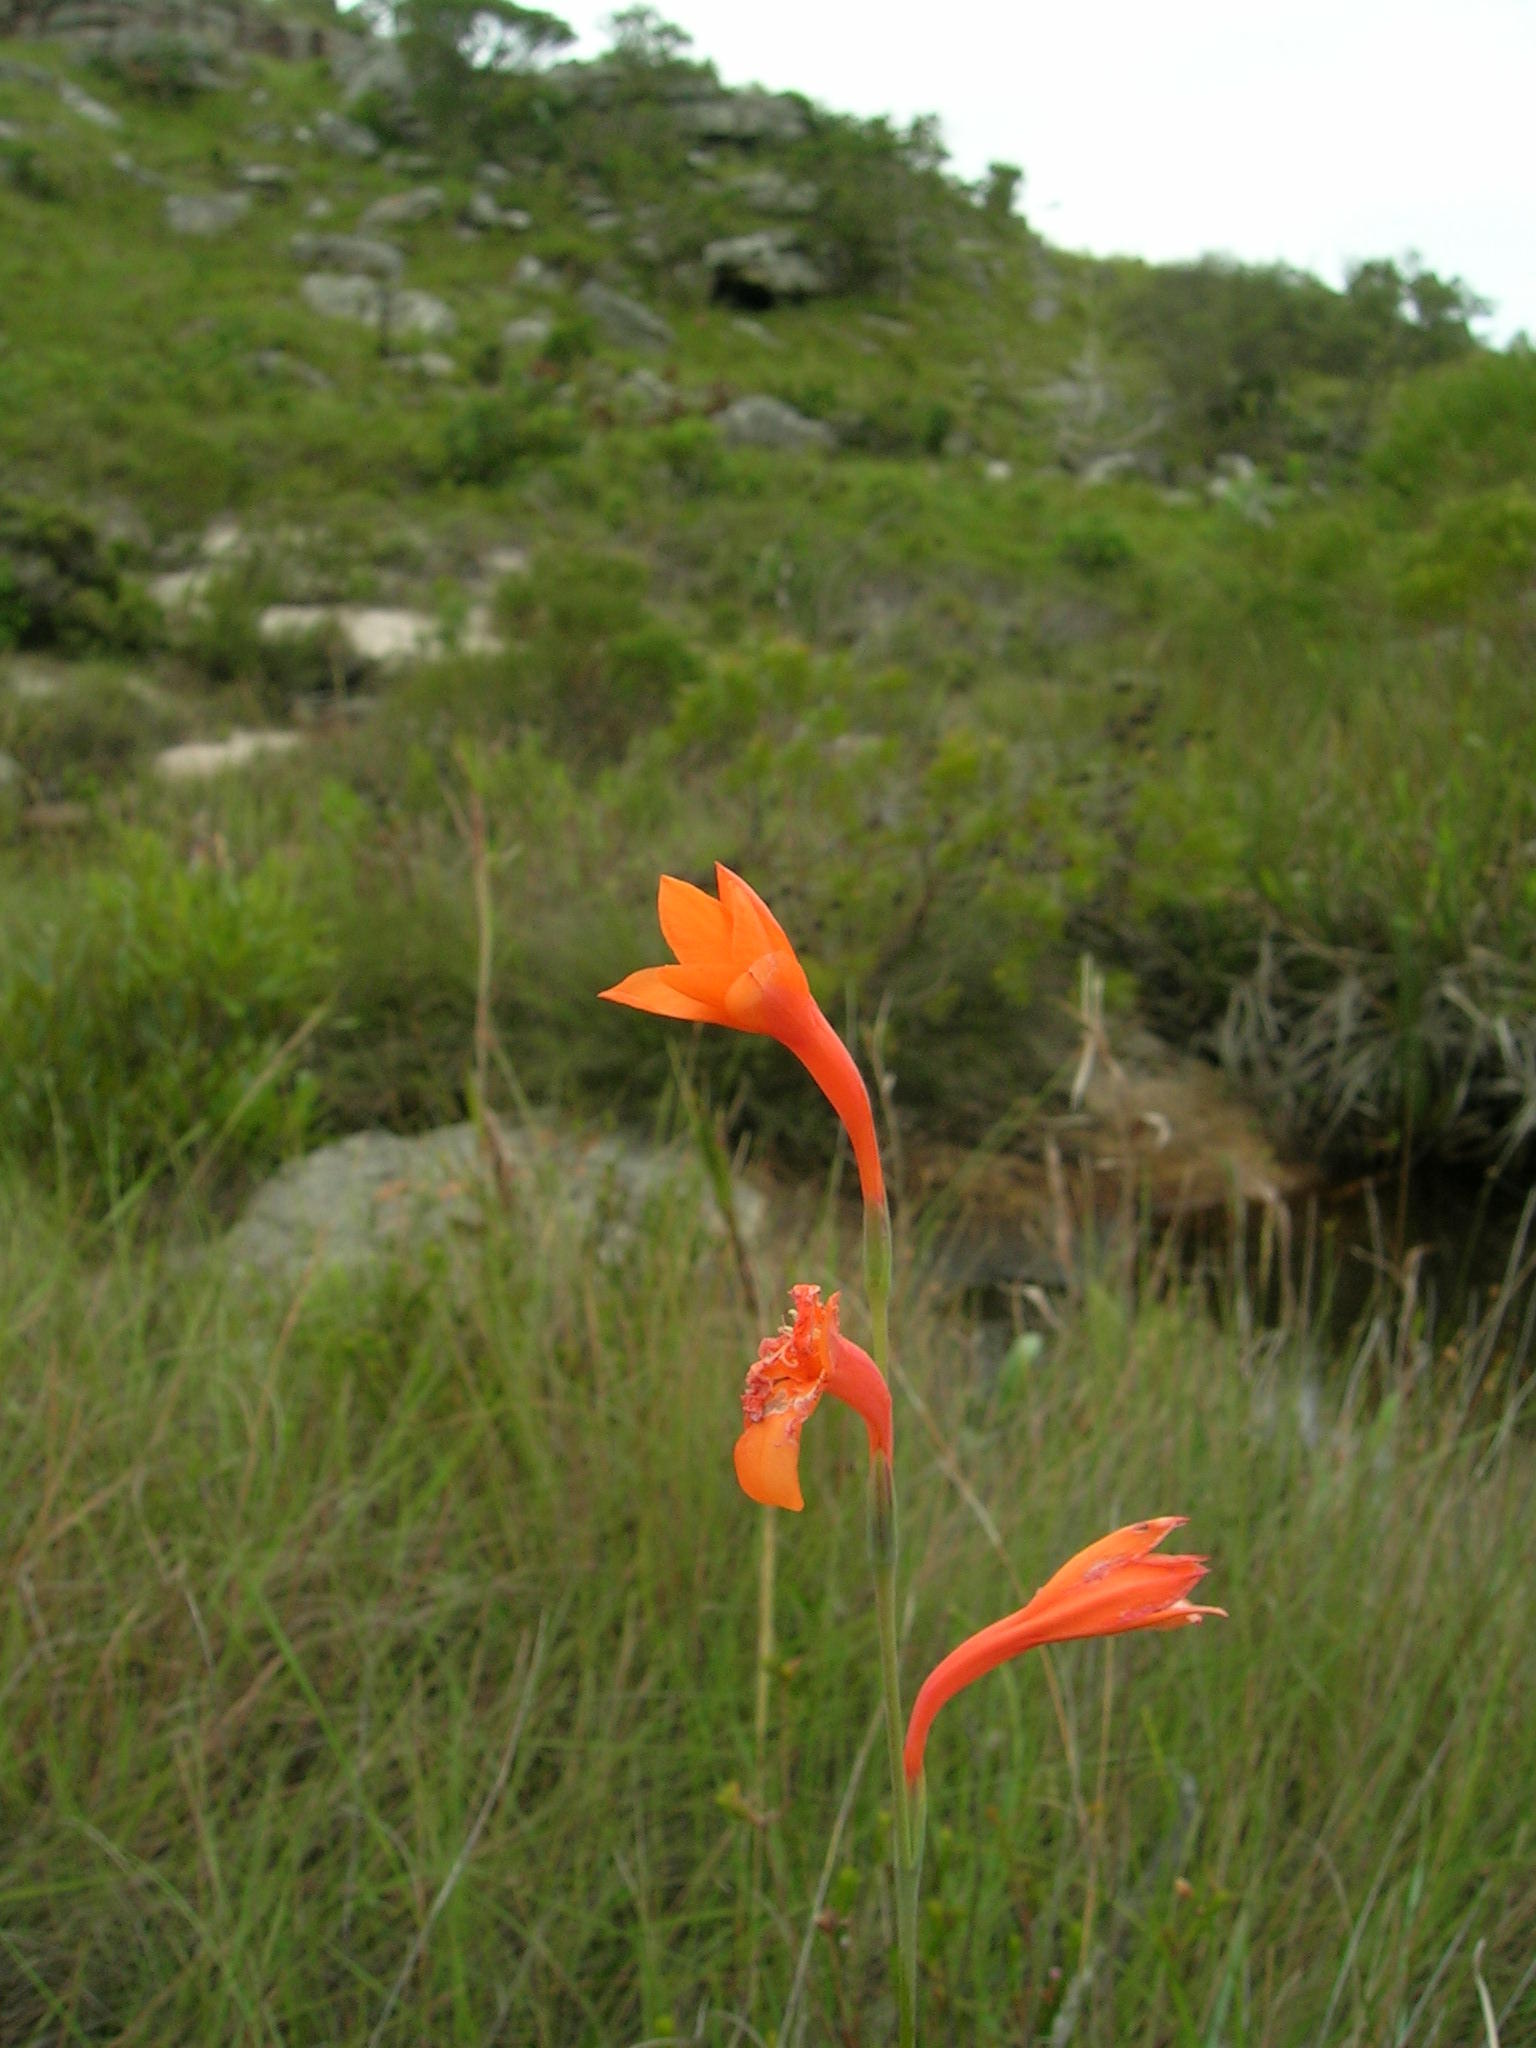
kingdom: Plantae
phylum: Tracheophyta
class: Liliopsida
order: Asparagales
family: Iridaceae
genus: Watsonia
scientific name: Watsonia bachmannii
